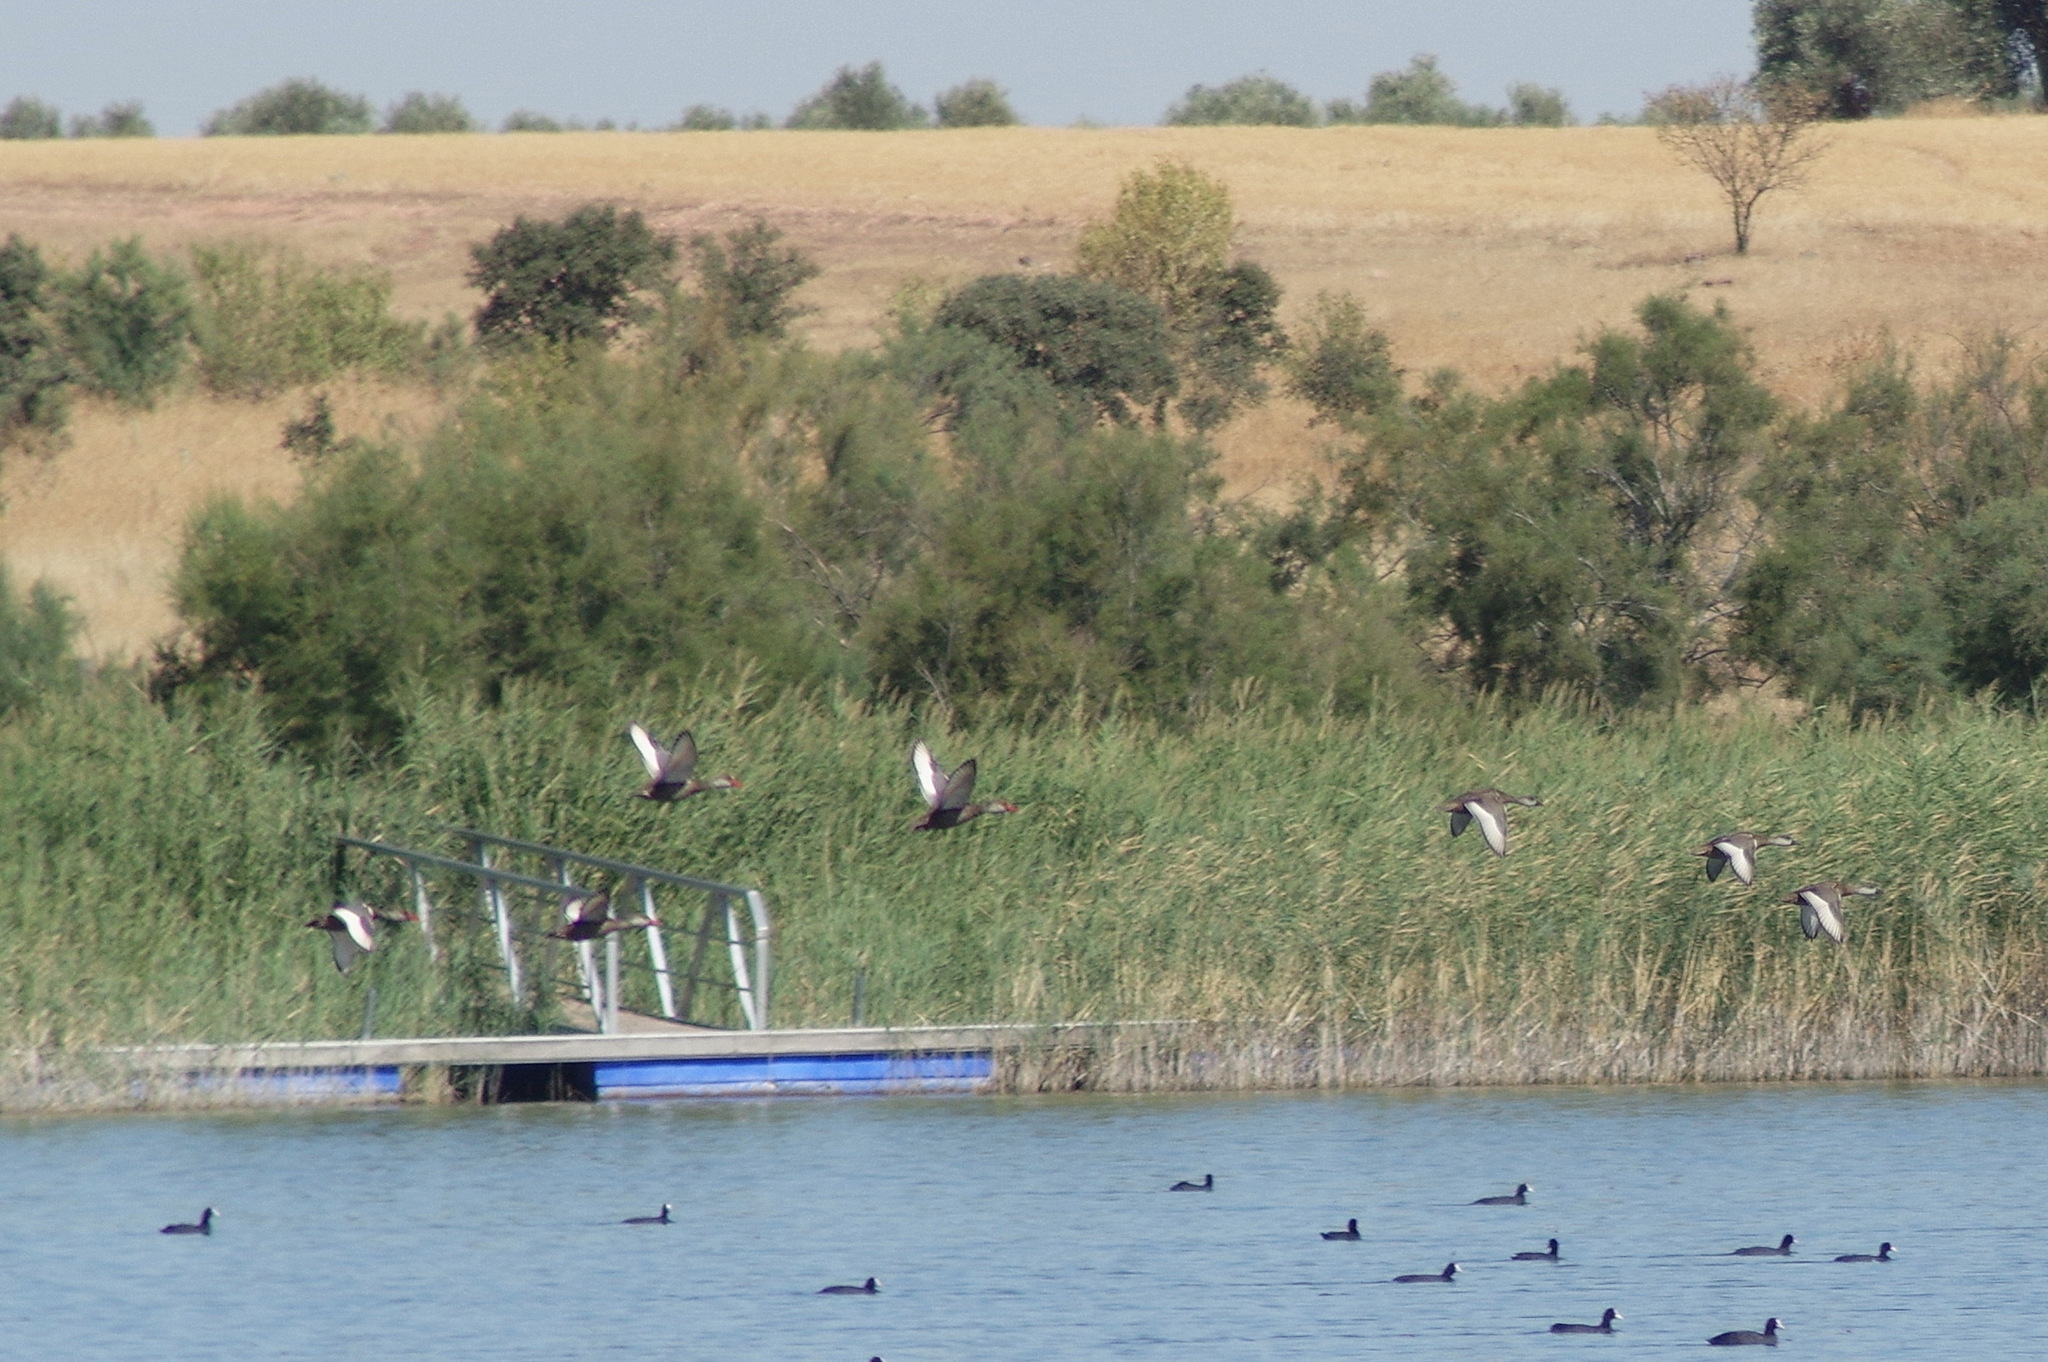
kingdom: Animalia
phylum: Chordata
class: Aves
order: Anseriformes
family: Anatidae
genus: Netta
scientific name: Netta rufina
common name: Red-crested pochard
